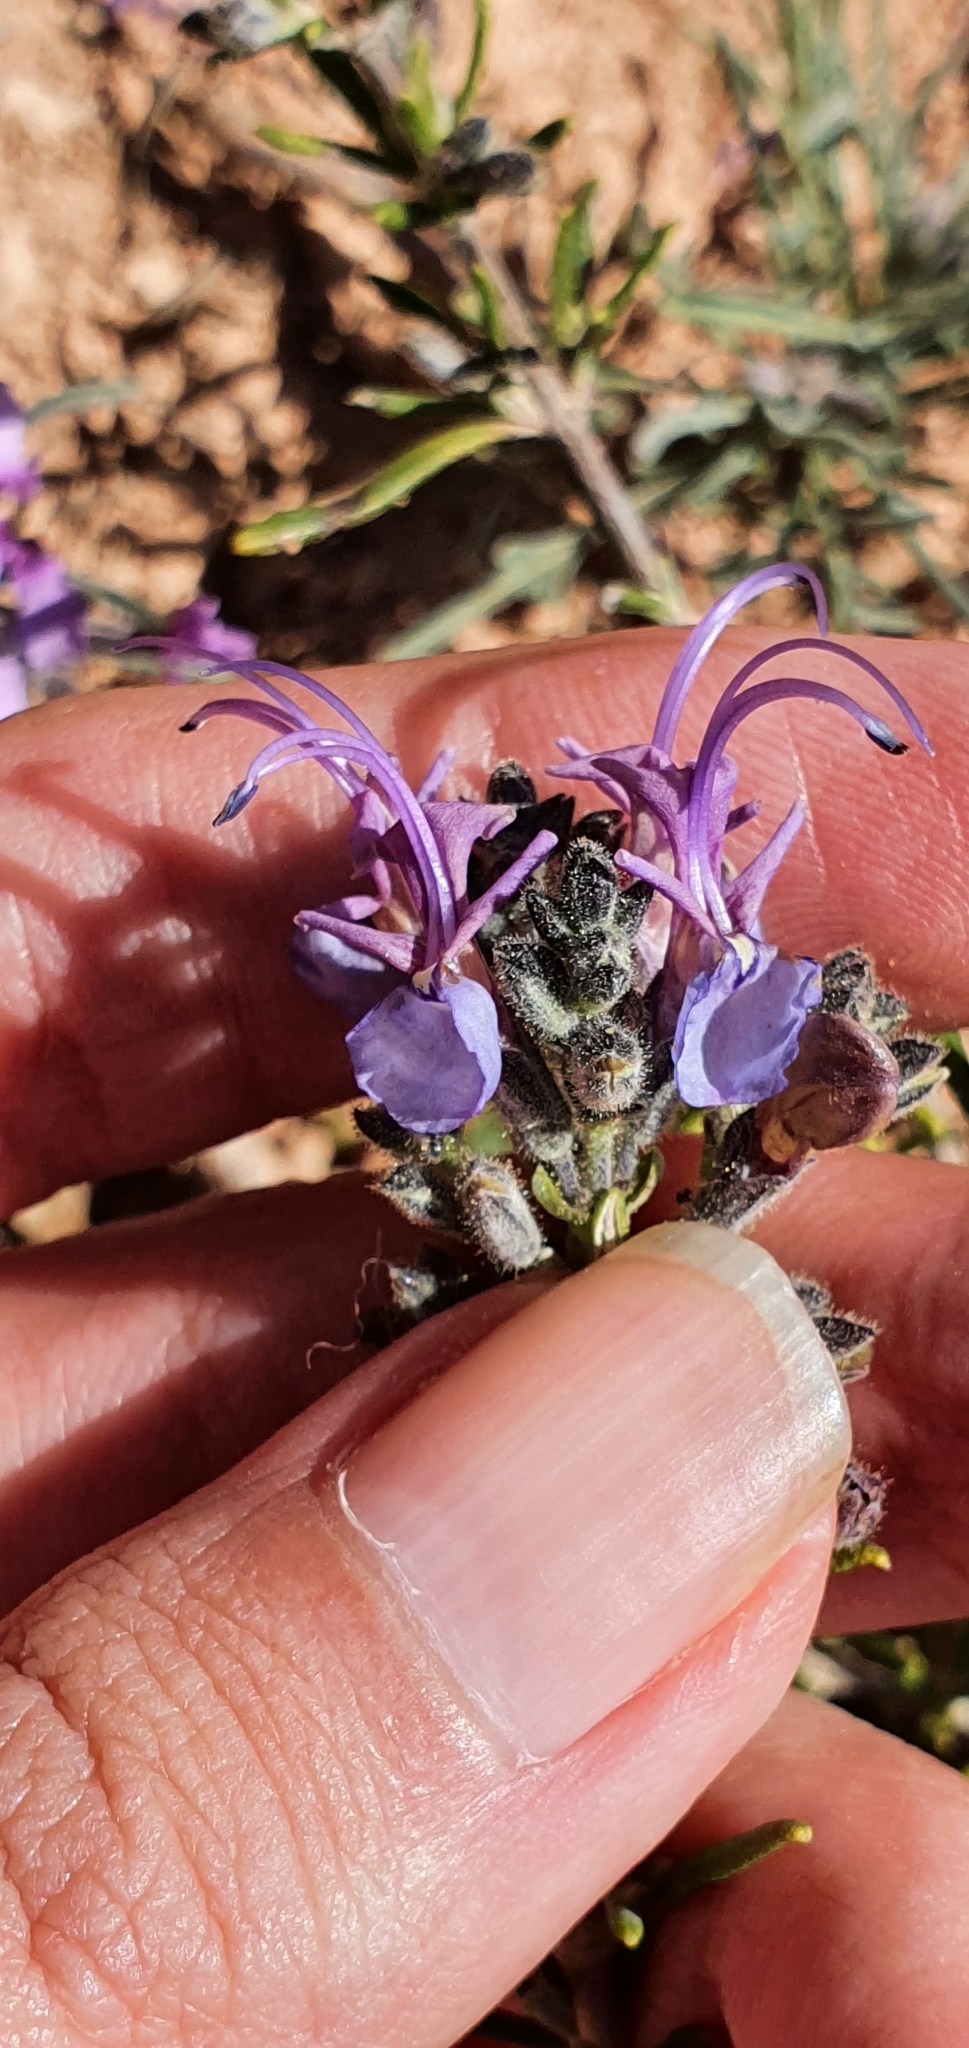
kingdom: Plantae
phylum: Tracheophyta
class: Magnoliopsida
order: Lamiales
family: Lamiaceae
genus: Salvia
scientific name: Salvia jordanii
